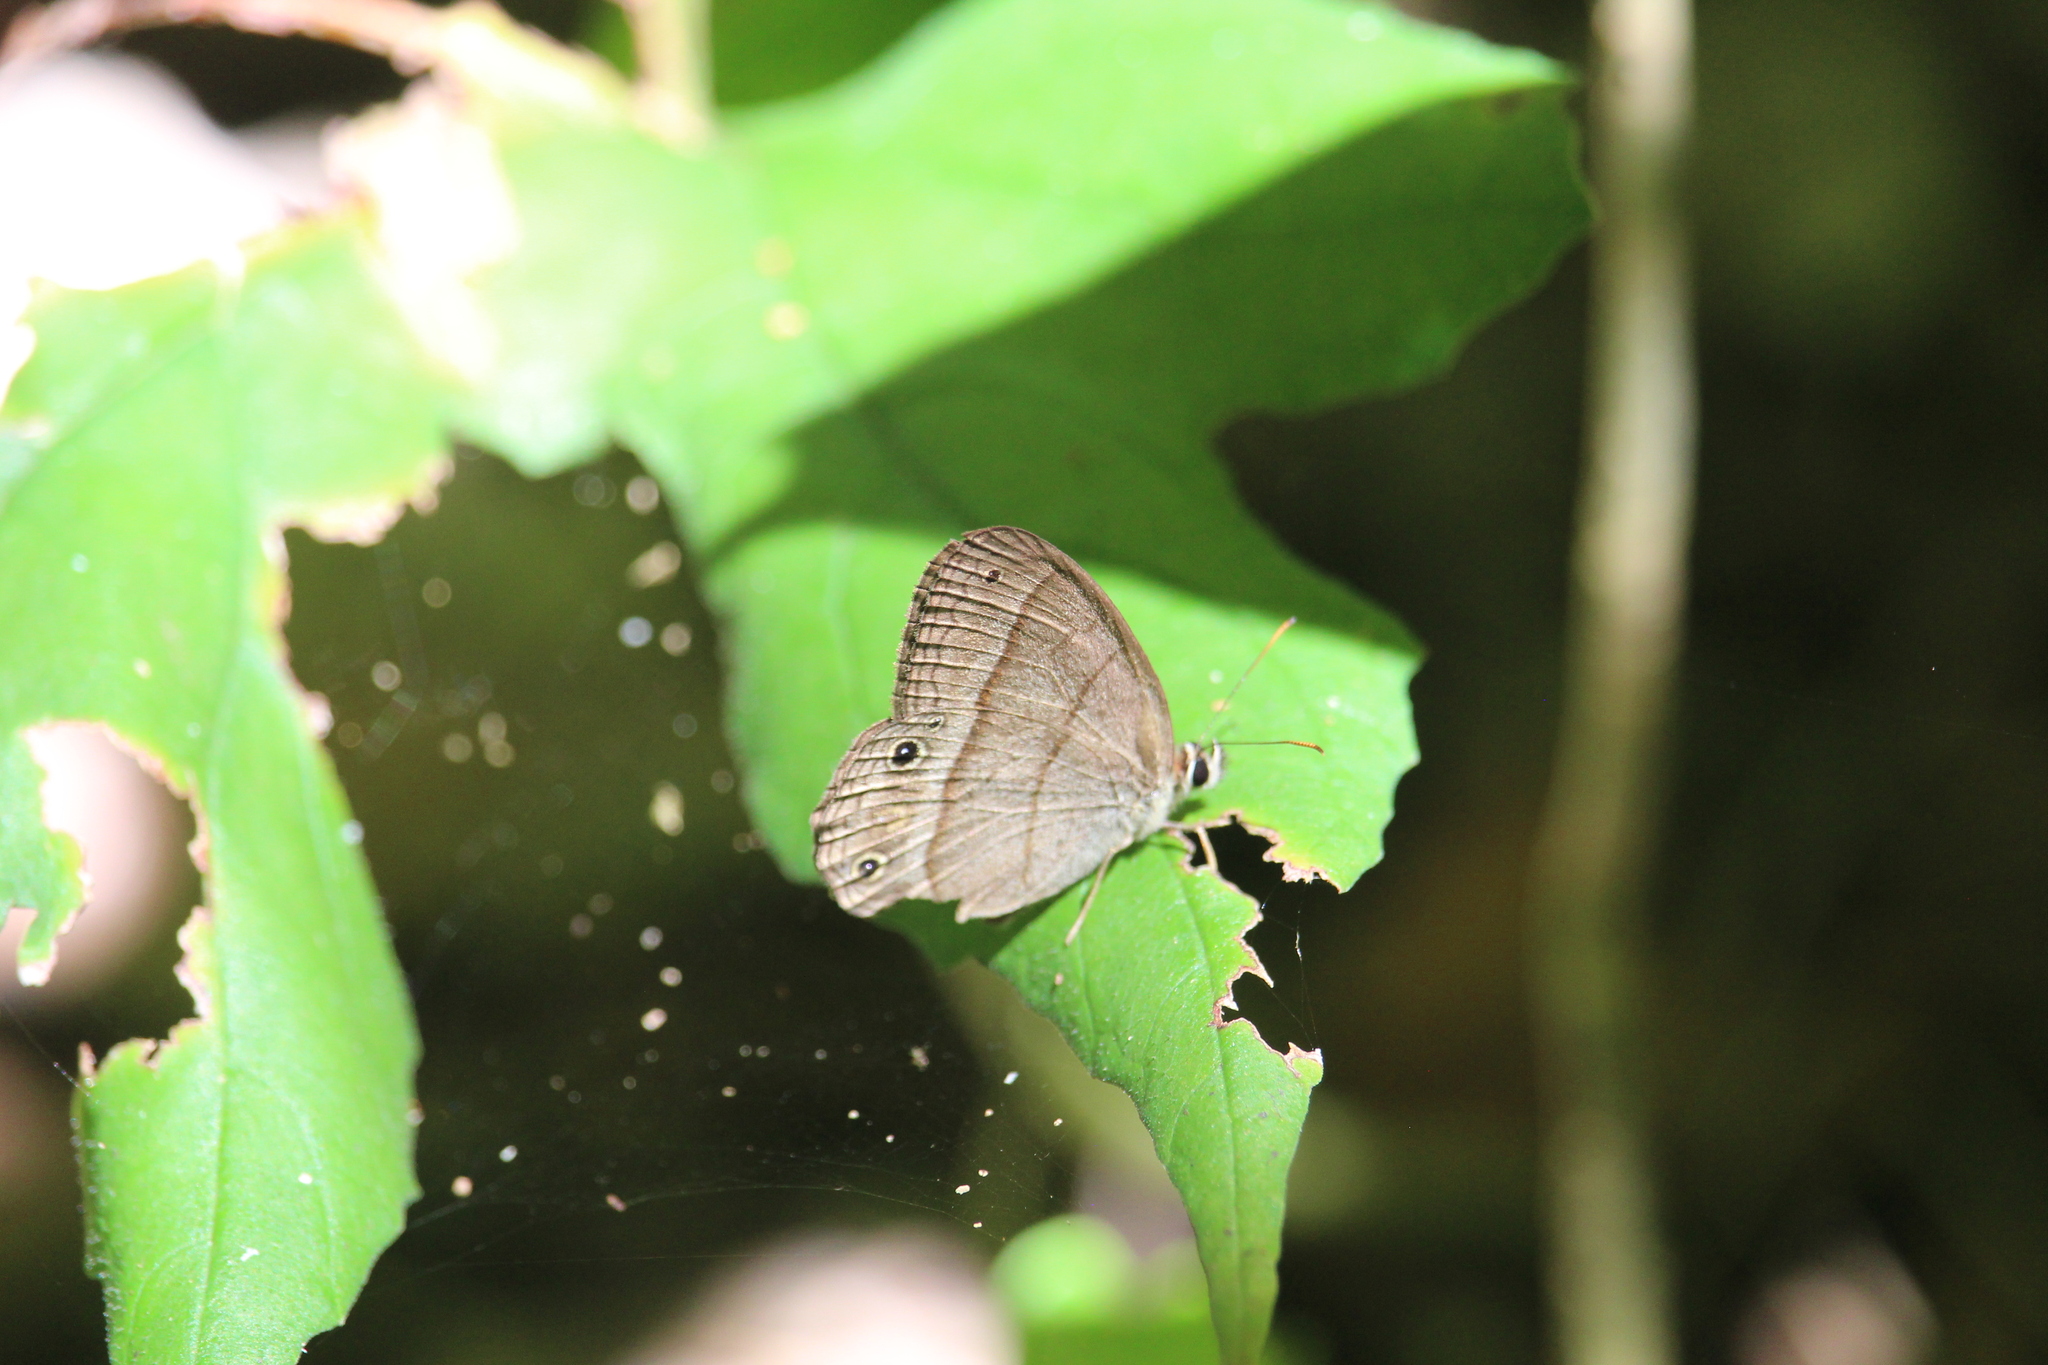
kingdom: Animalia
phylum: Arthropoda
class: Insecta
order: Lepidoptera
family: Nymphalidae
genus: Euptychia
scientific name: Euptychia Cissia pompilia
